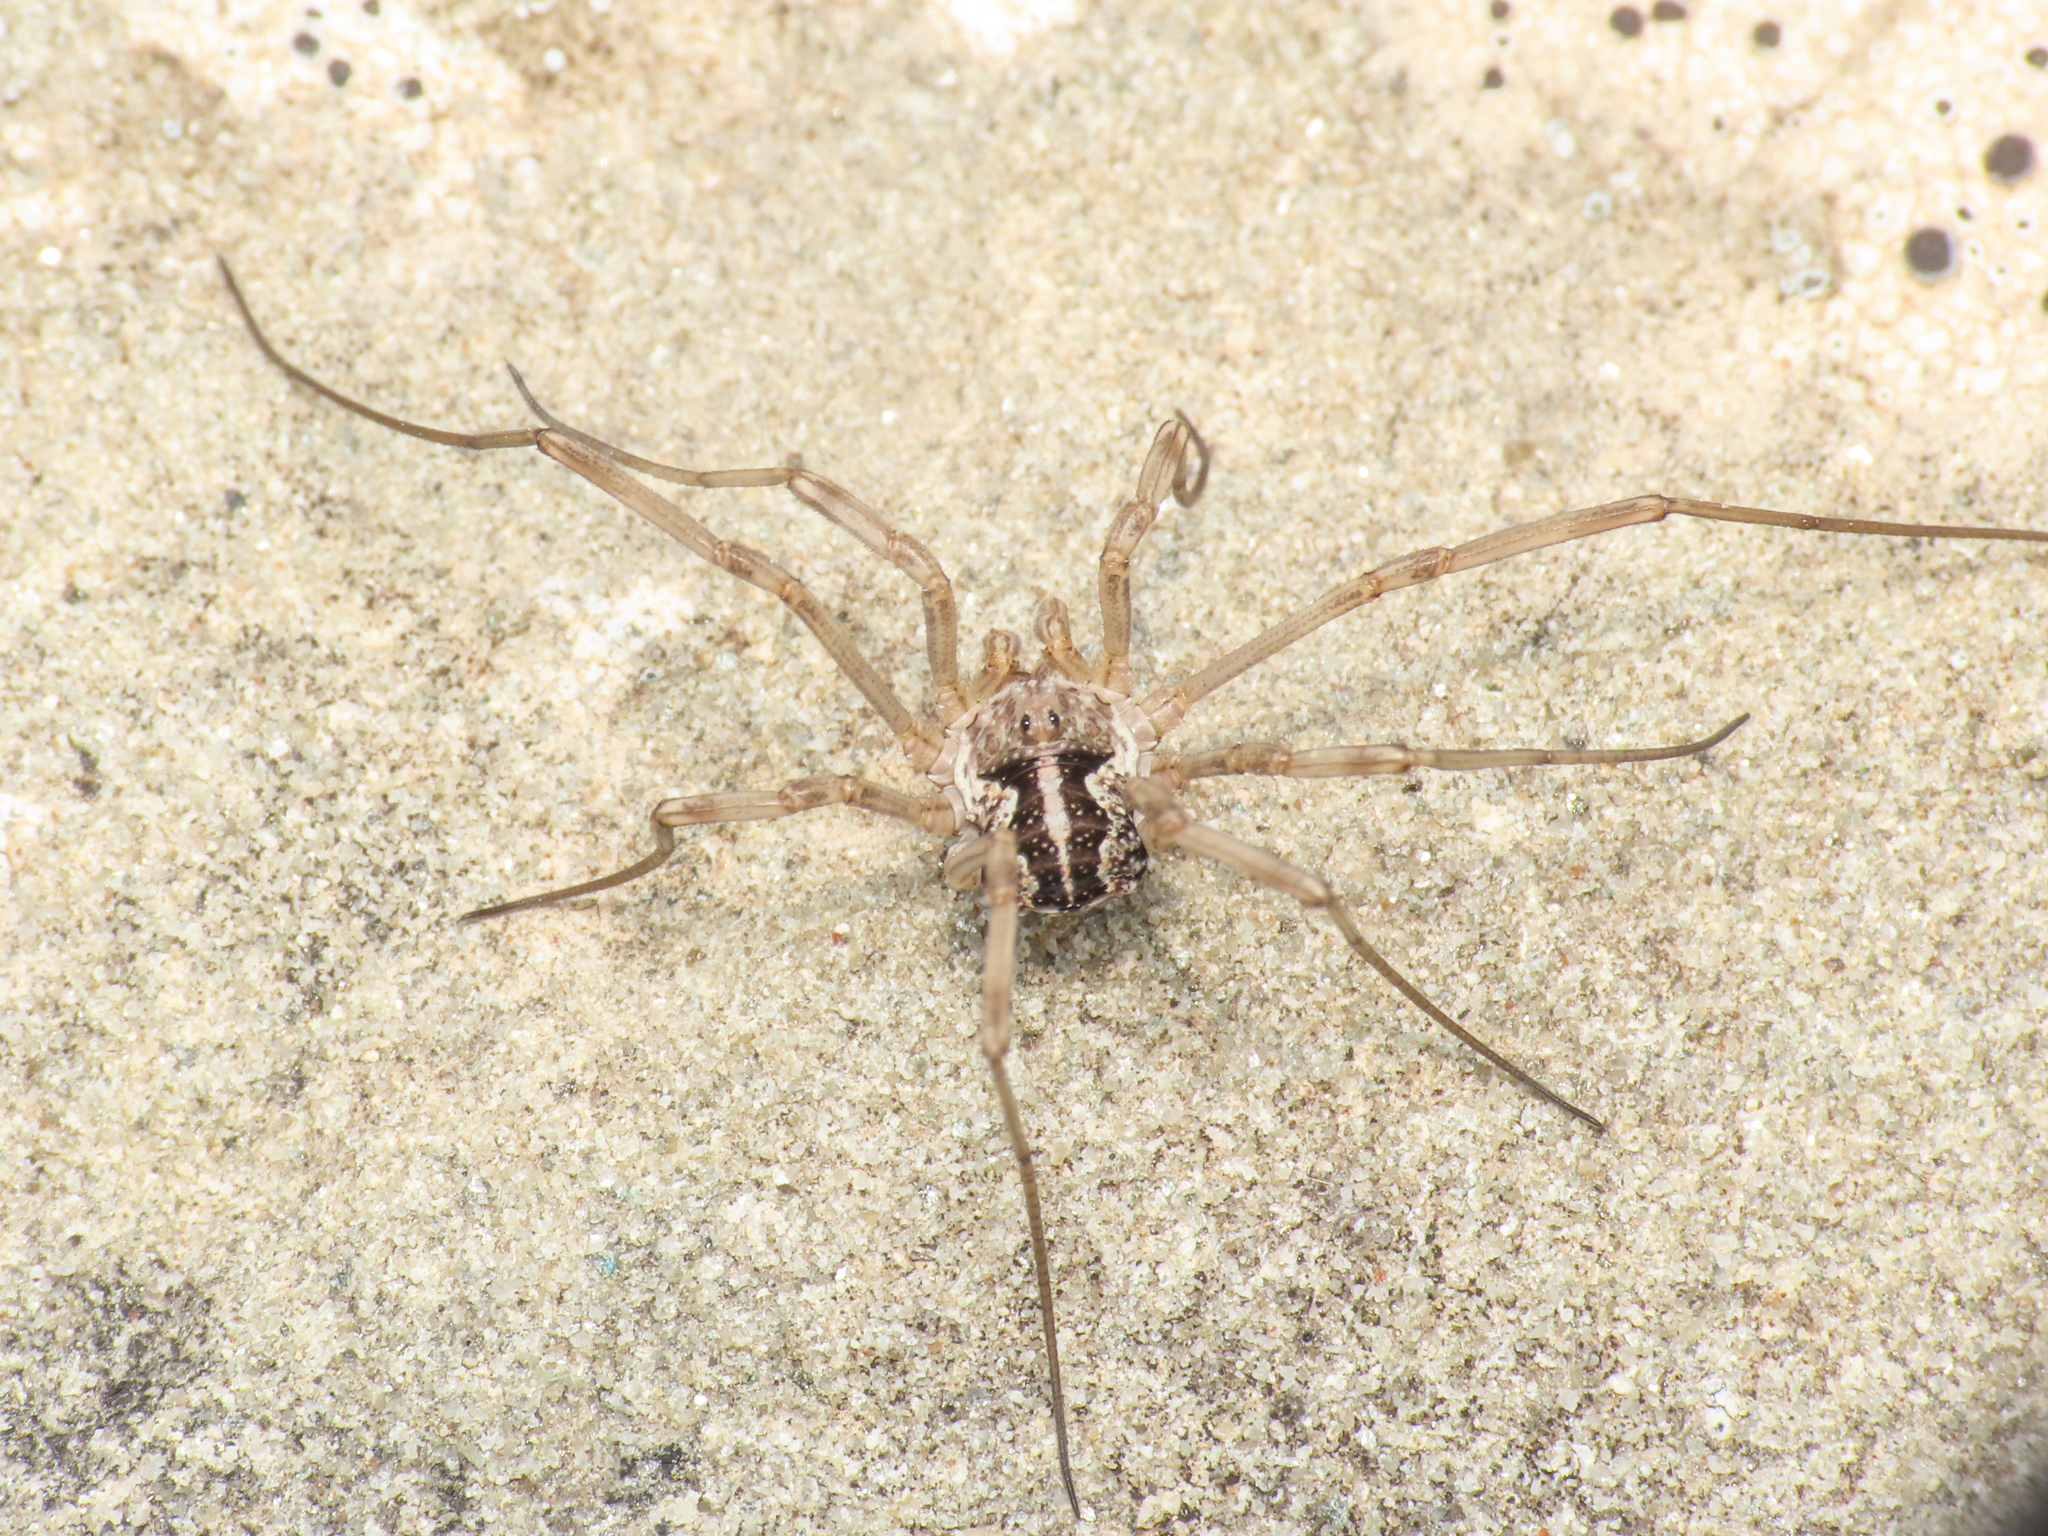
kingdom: Animalia
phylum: Arthropoda
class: Arachnida
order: Opiliones
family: Phalangiidae
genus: Mitopus
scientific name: Mitopus morio
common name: Saddleback harvestman
